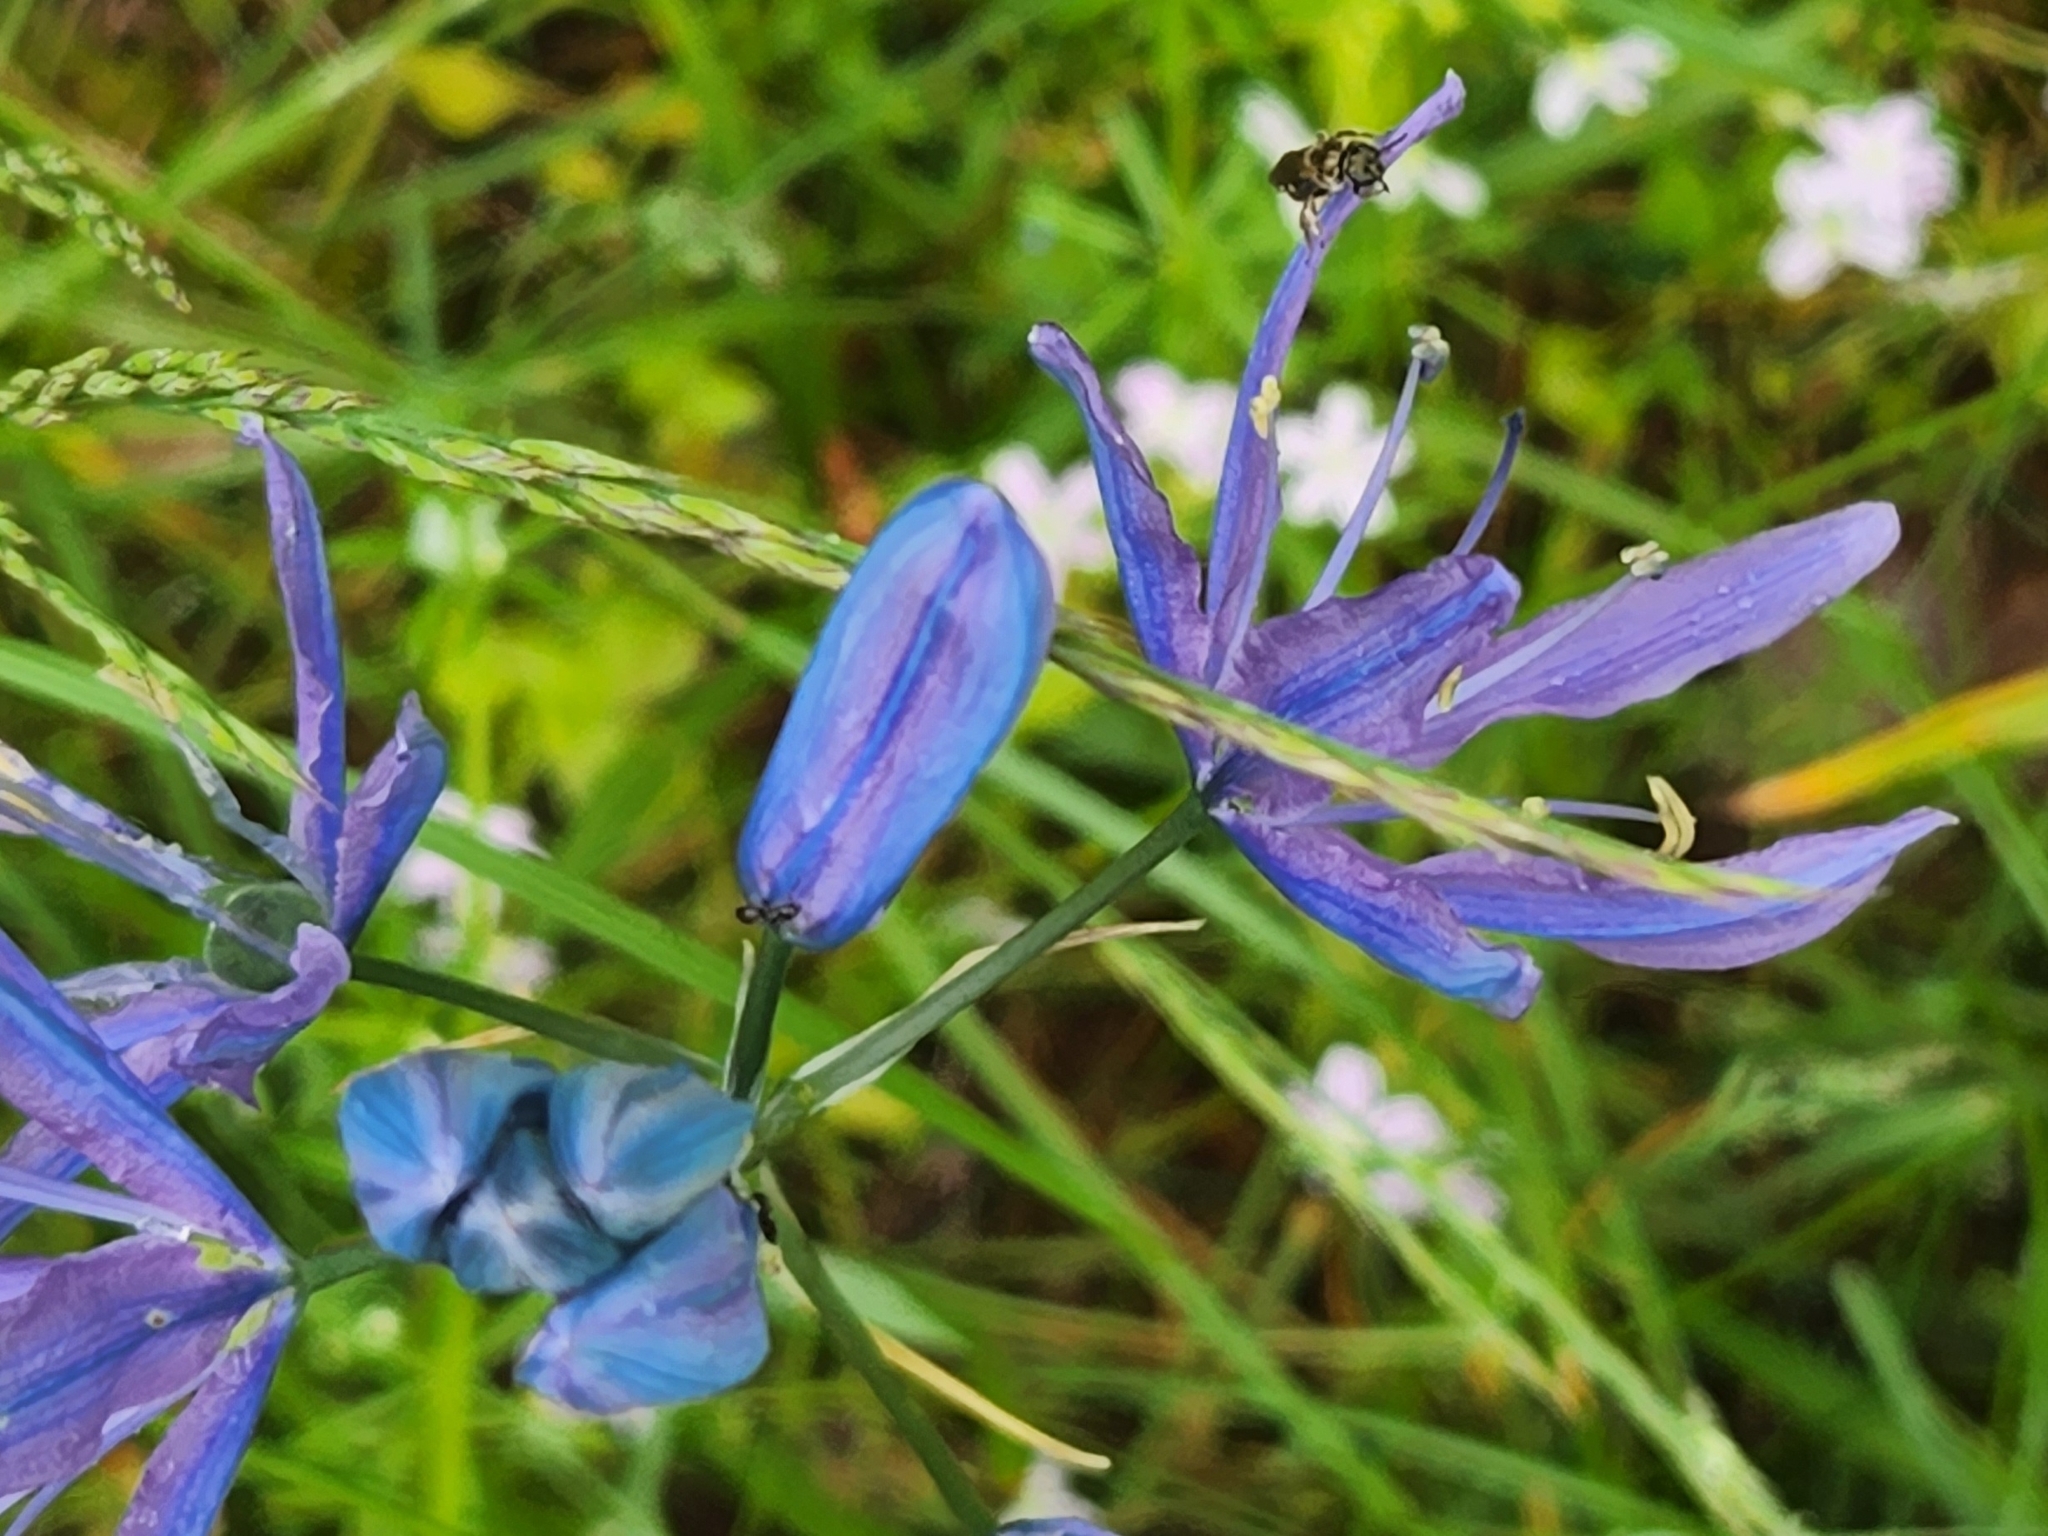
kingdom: Plantae
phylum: Tracheophyta
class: Liliopsida
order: Asparagales
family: Asparagaceae
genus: Camassia
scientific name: Camassia quamash
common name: Common camas
